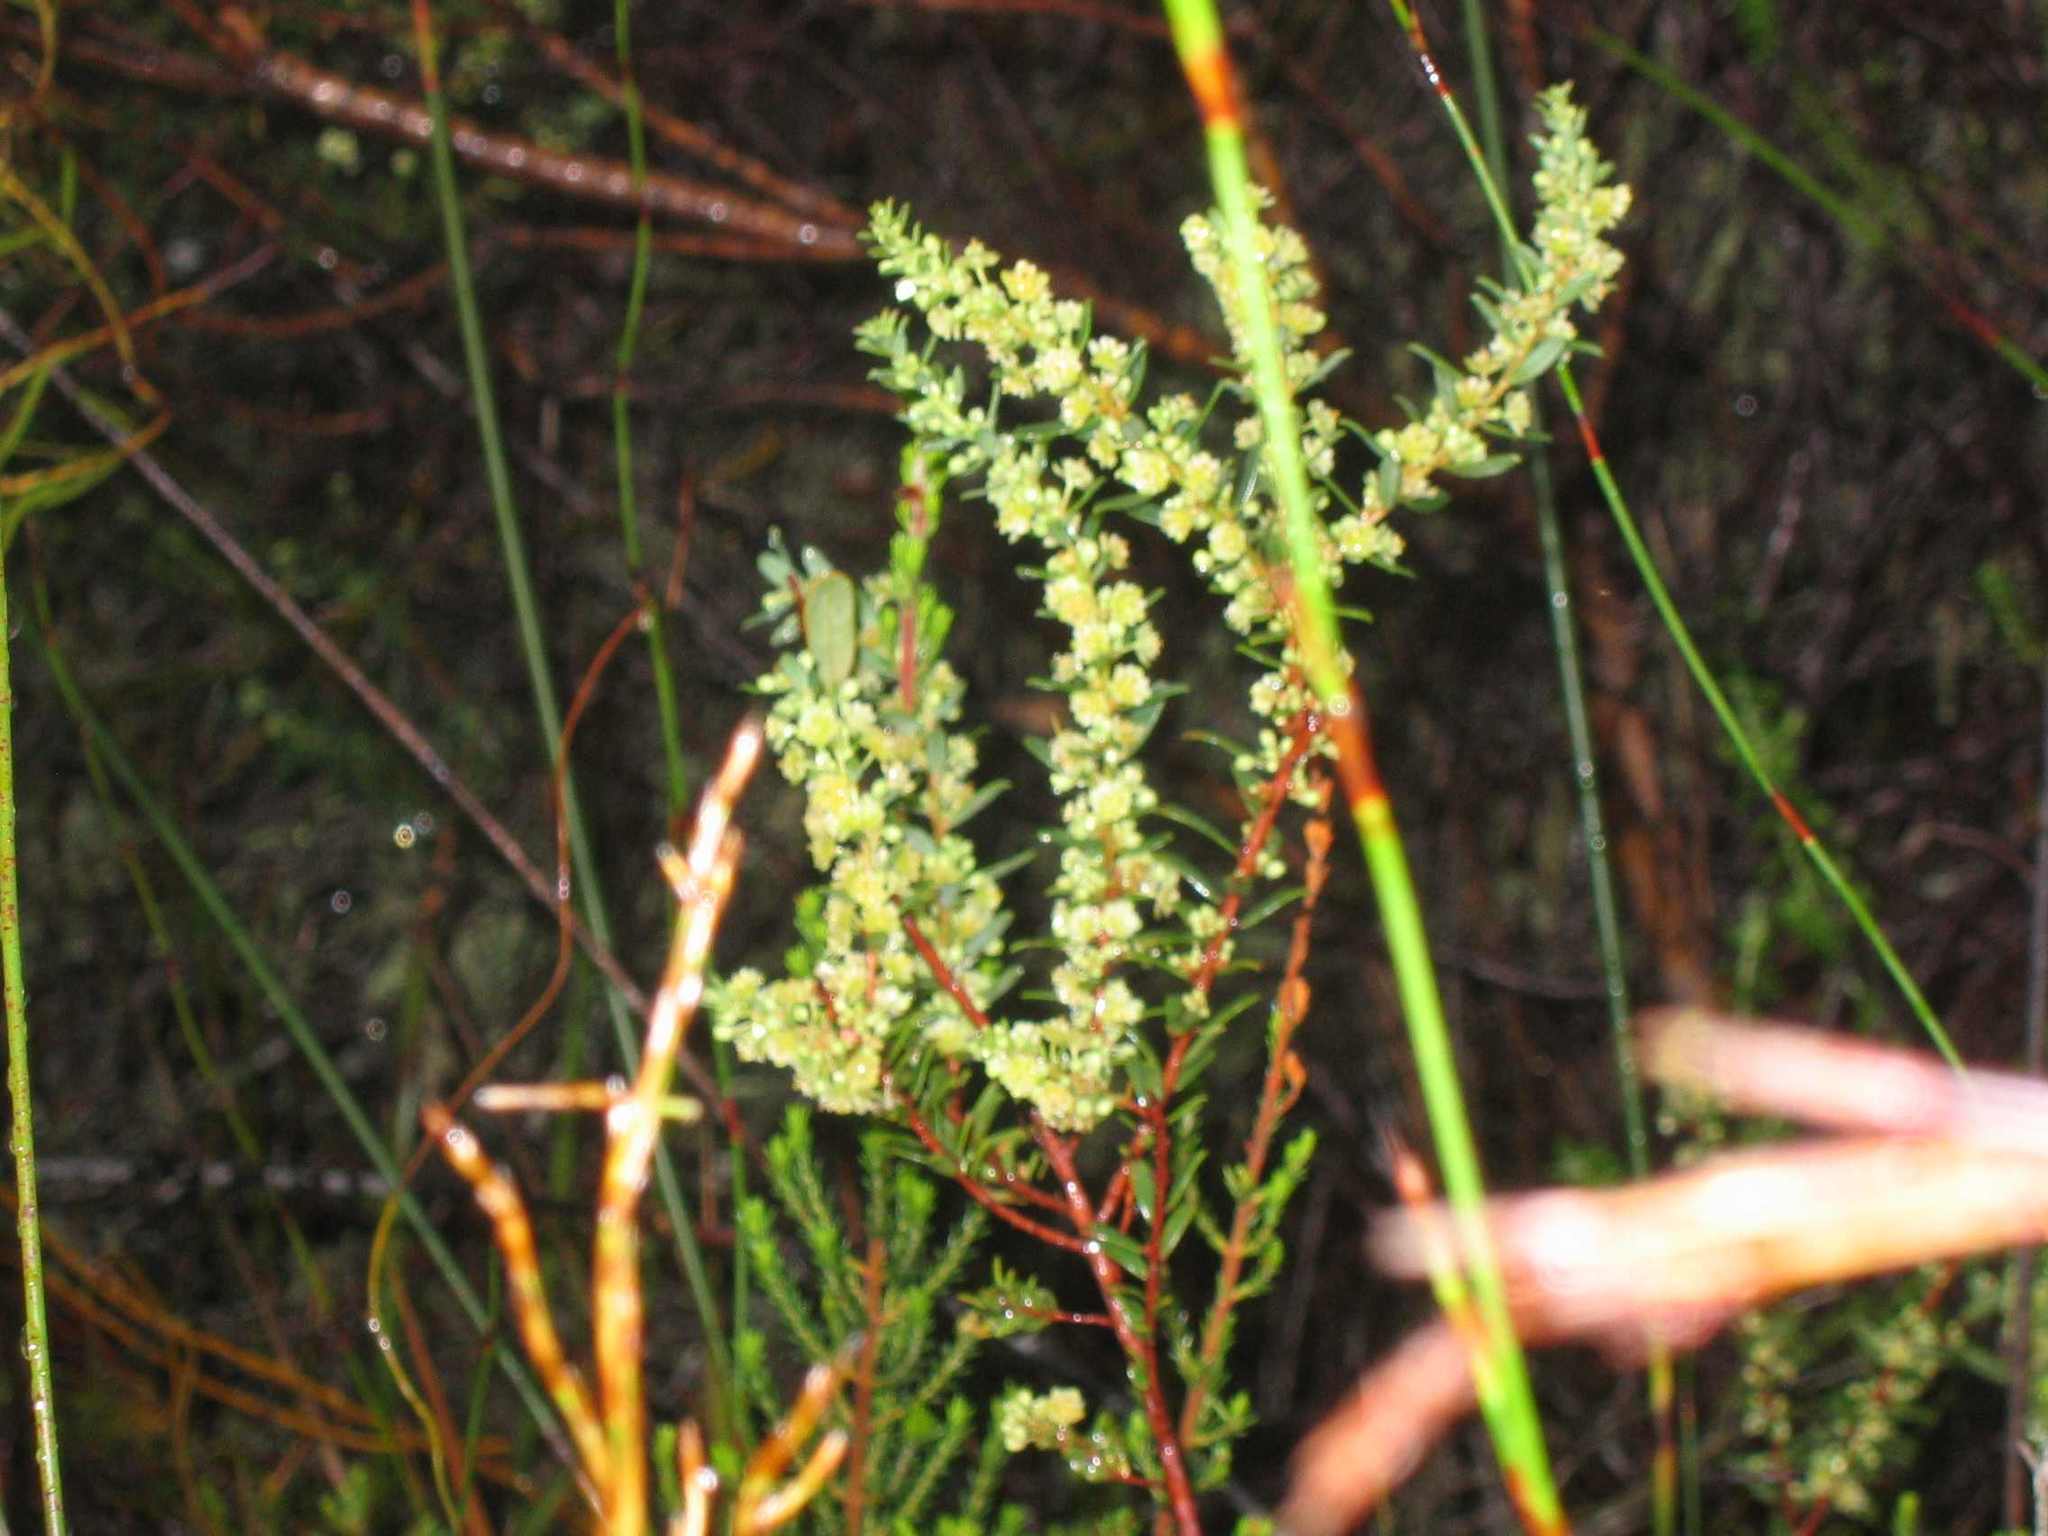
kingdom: Plantae
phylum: Tracheophyta
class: Magnoliopsida
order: Malpighiales
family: Peraceae
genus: Clutia
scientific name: Clutia ericoides
